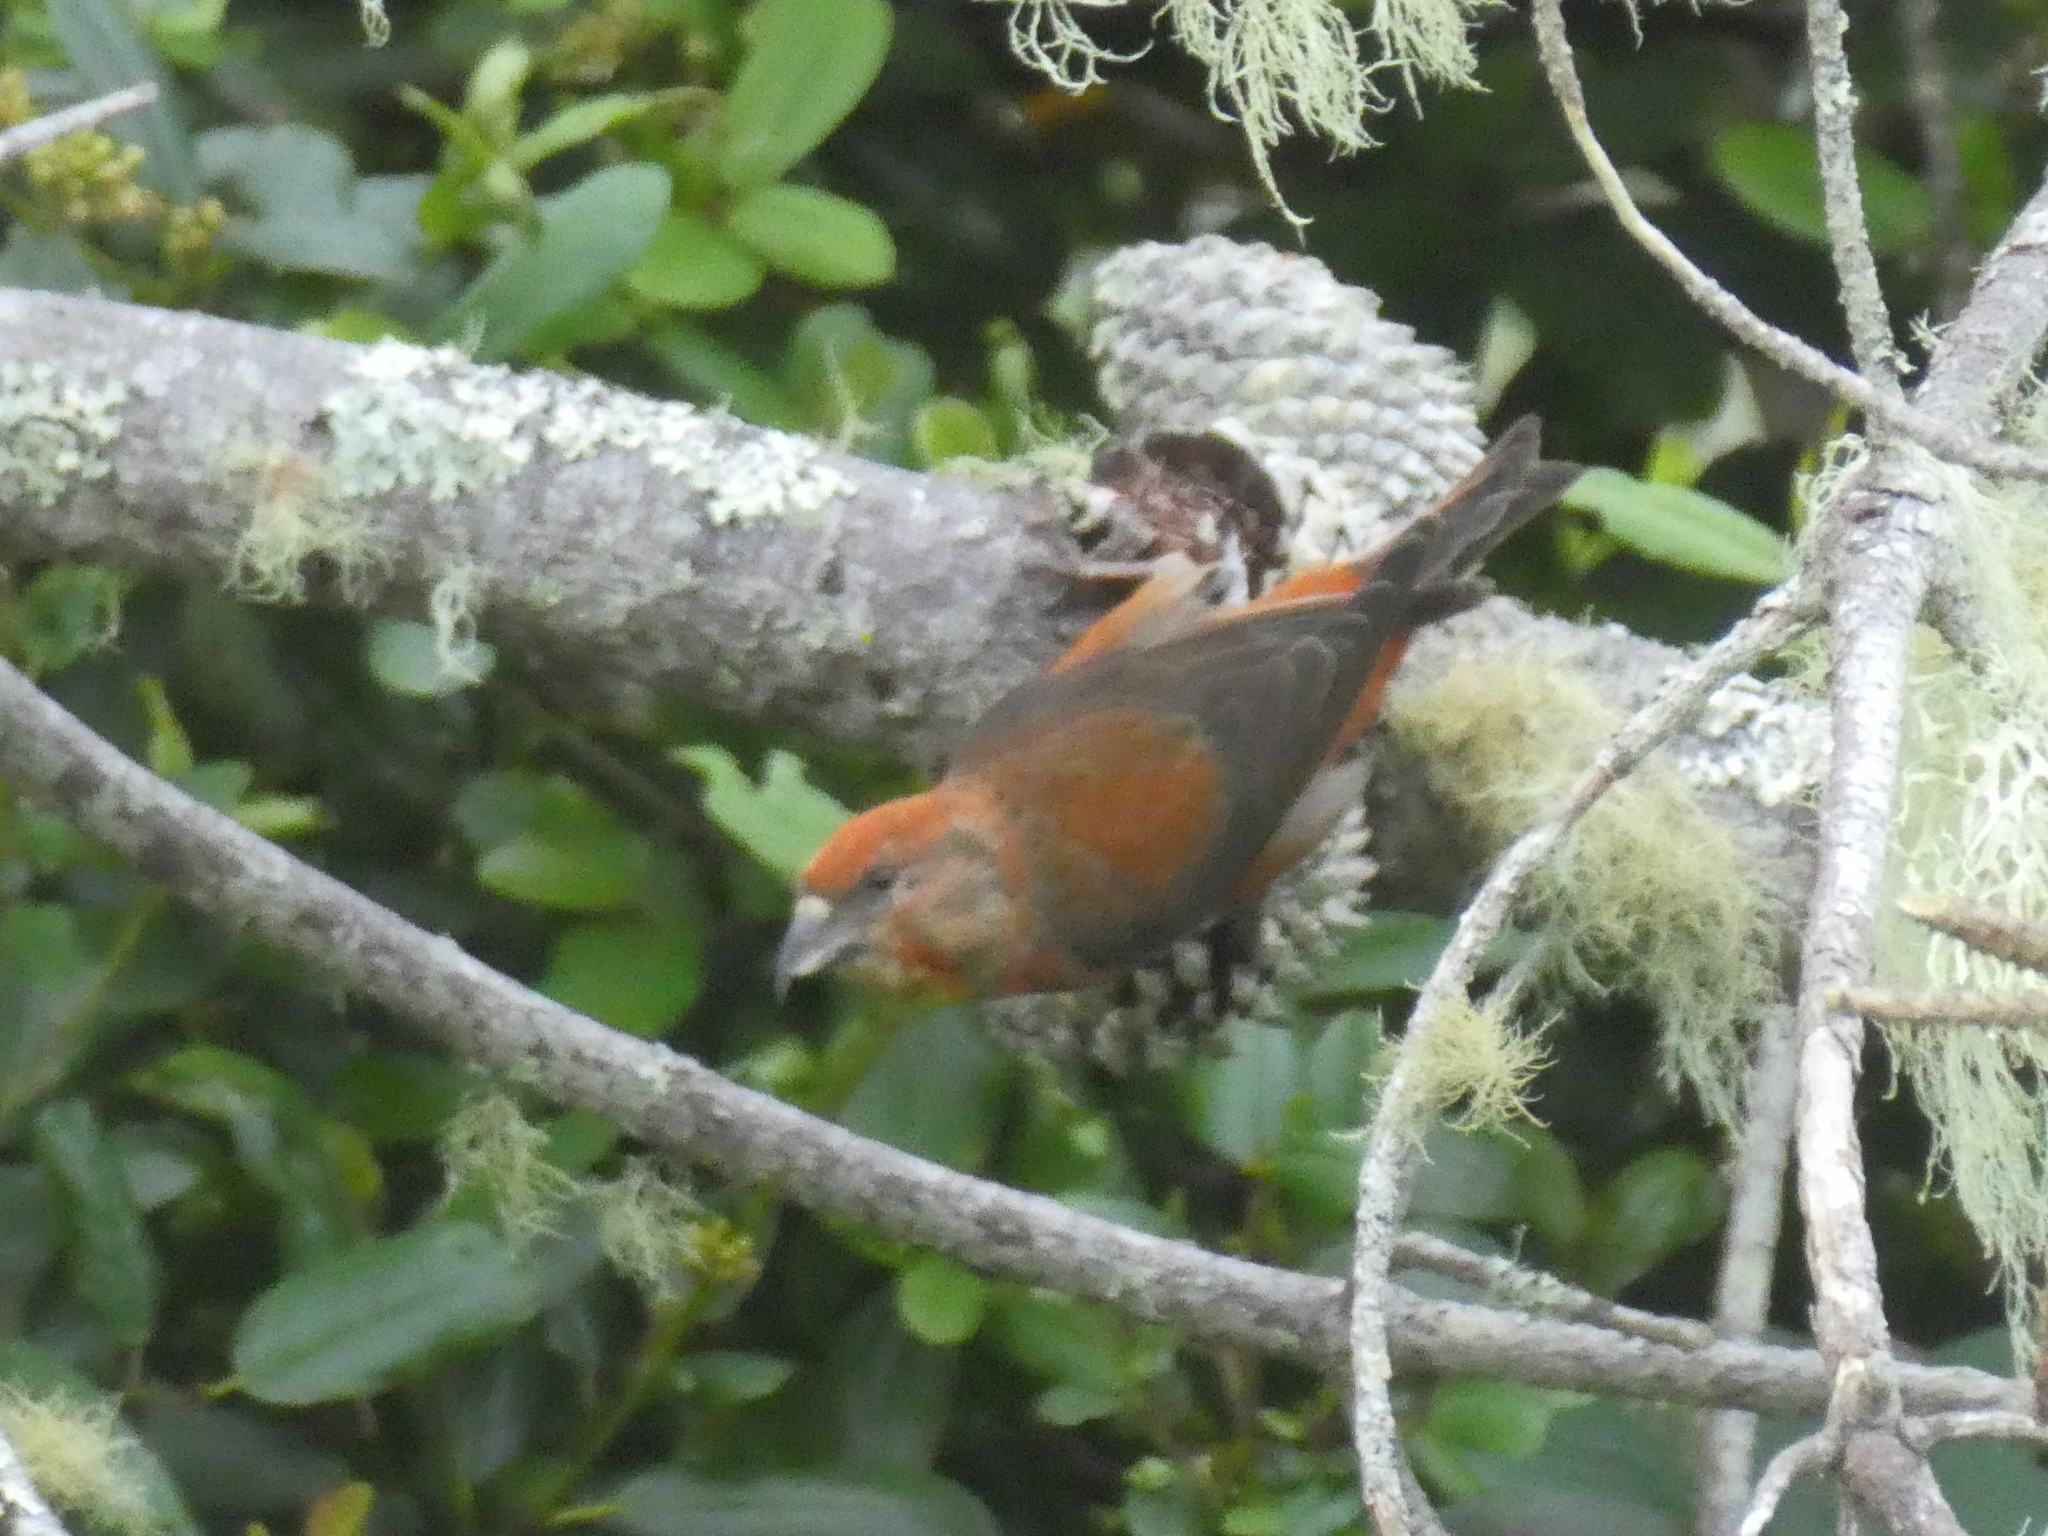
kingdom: Animalia
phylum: Chordata
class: Aves
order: Passeriformes
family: Fringillidae
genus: Loxia
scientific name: Loxia curvirostra
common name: Red crossbill
